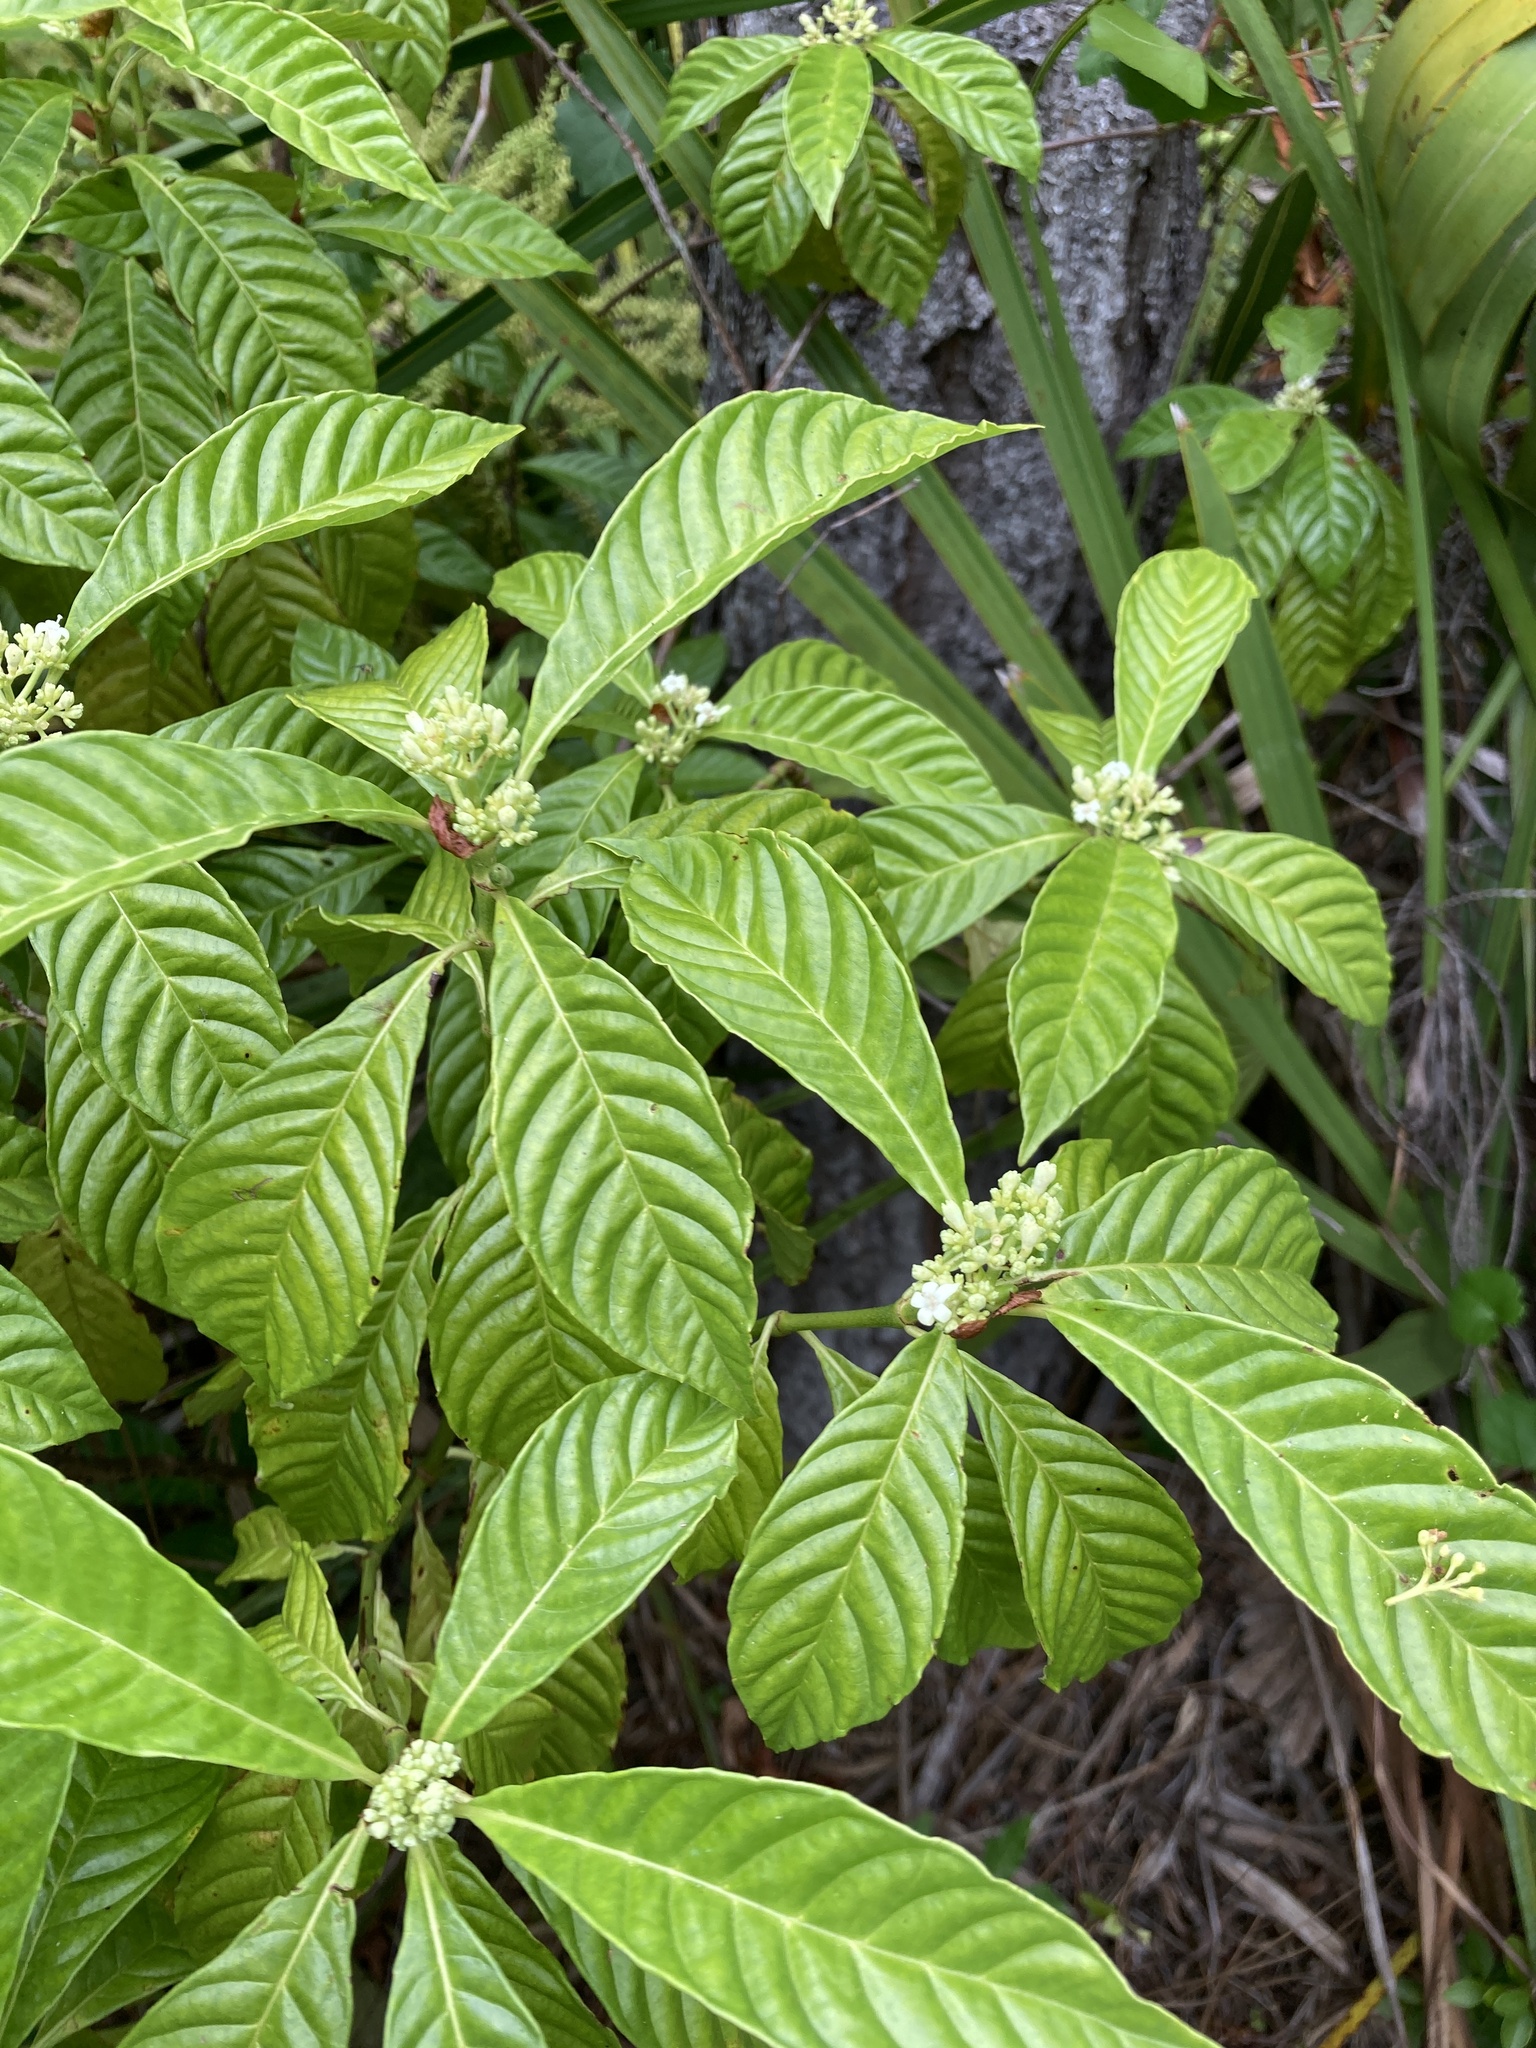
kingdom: Plantae
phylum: Tracheophyta
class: Magnoliopsida
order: Gentianales
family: Rubiaceae
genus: Psychotria
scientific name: Psychotria nervosa
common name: Bastard cankerberry
